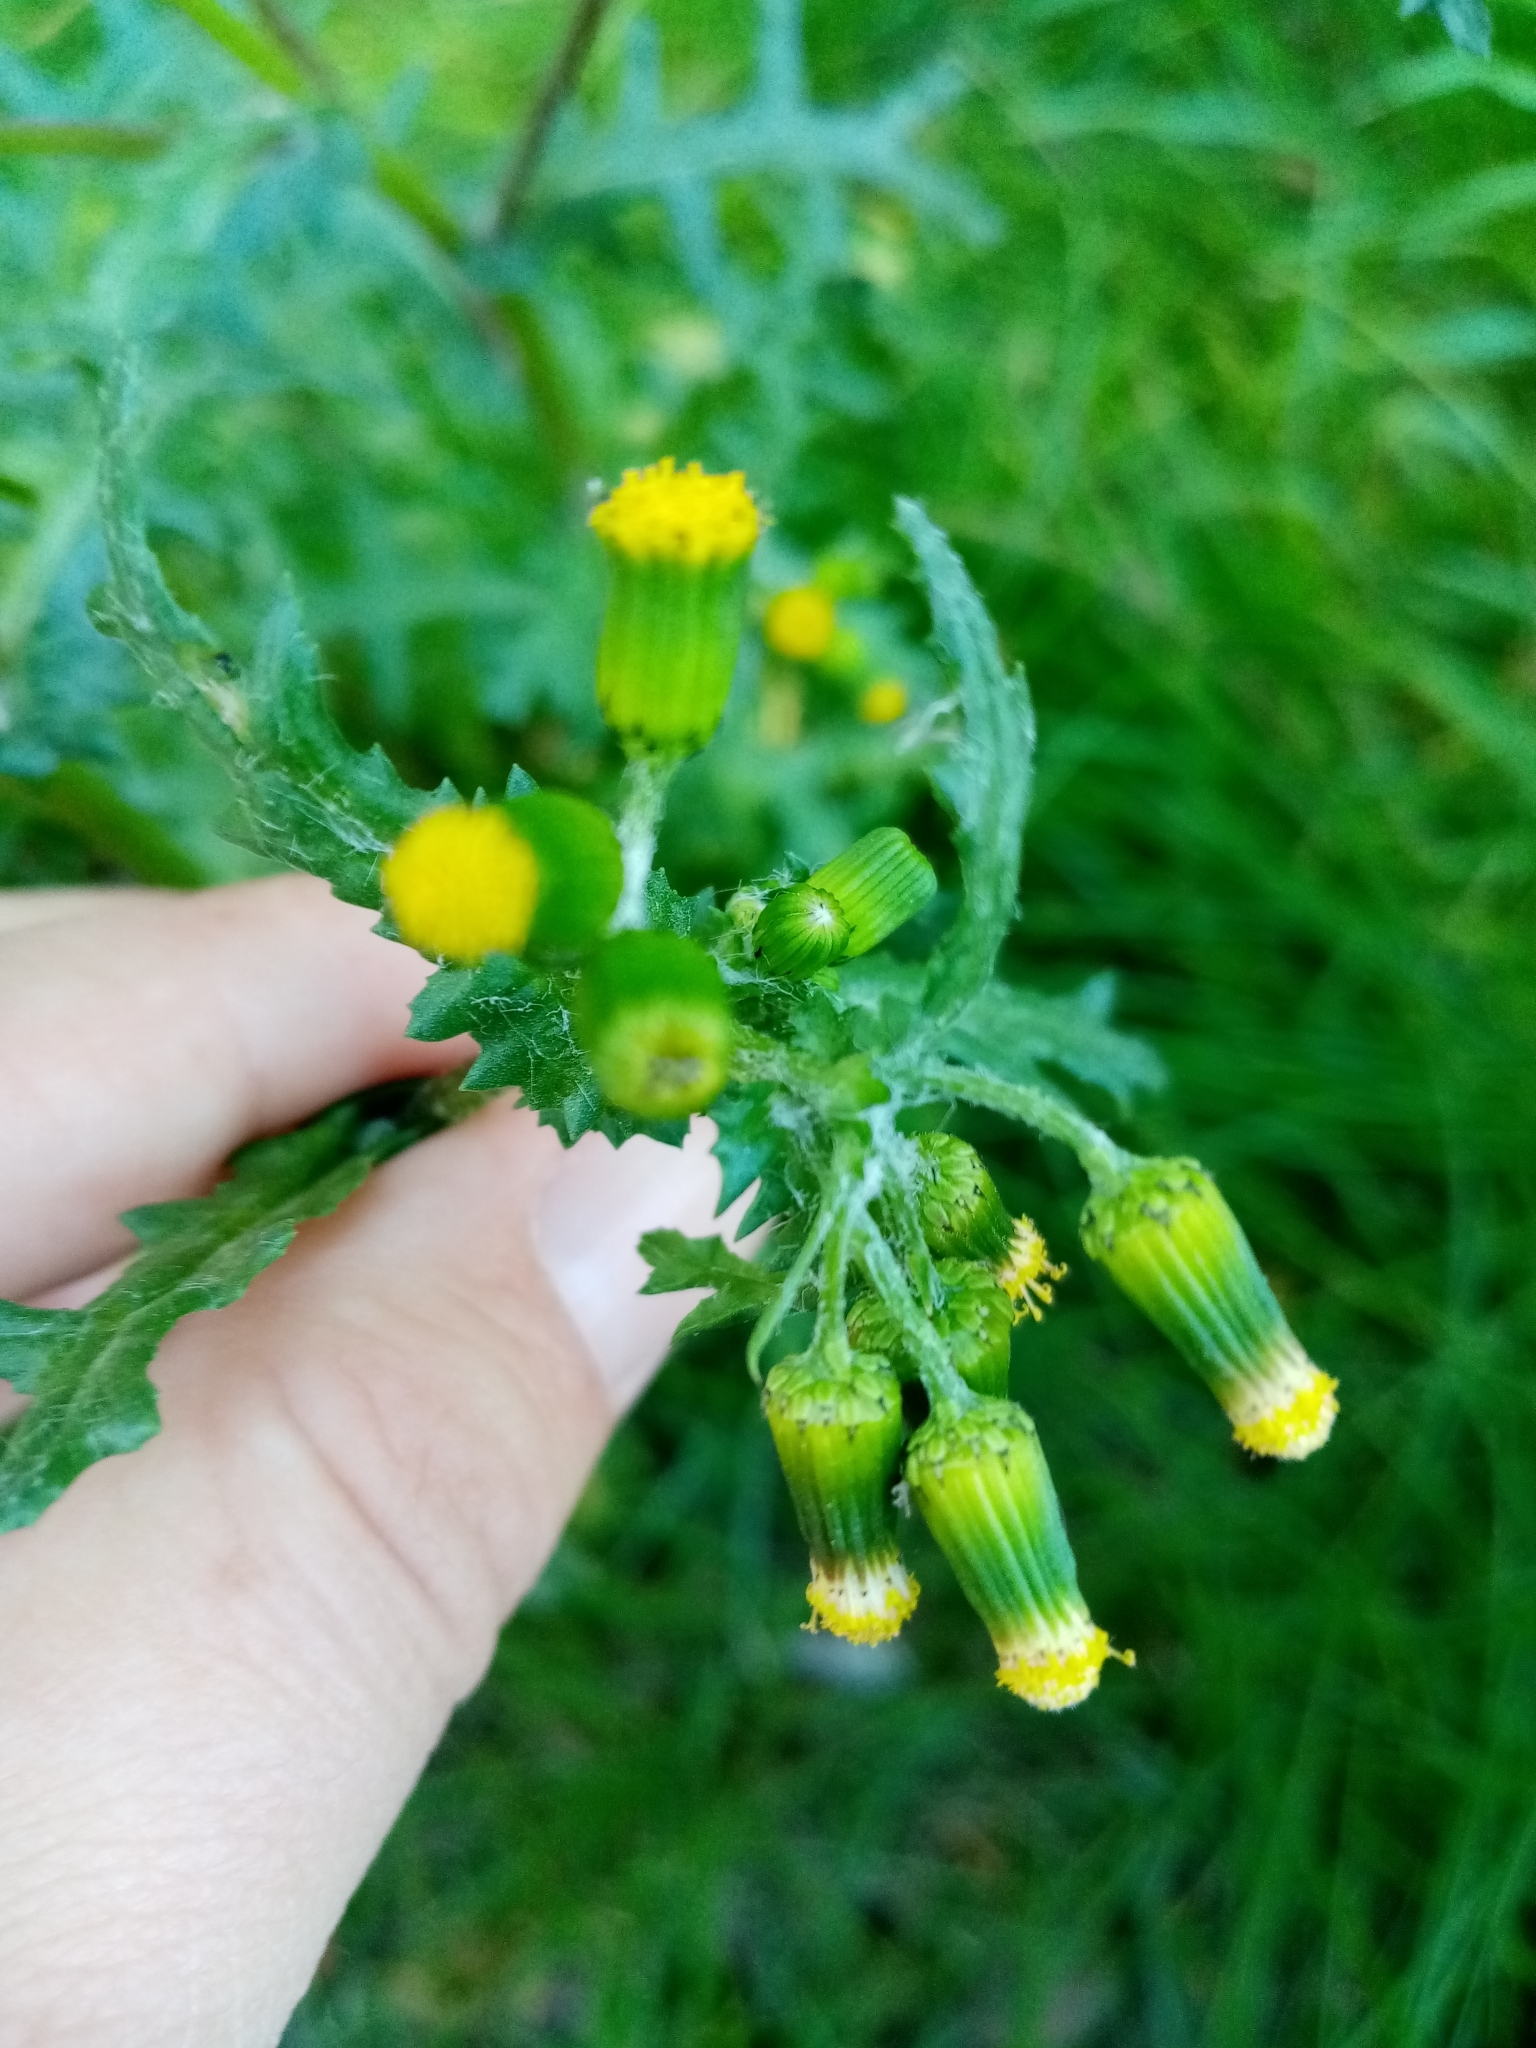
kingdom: Plantae
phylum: Tracheophyta
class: Magnoliopsida
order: Asterales
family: Asteraceae
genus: Senecio
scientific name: Senecio vulgaris
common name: Old-man-in-the-spring
